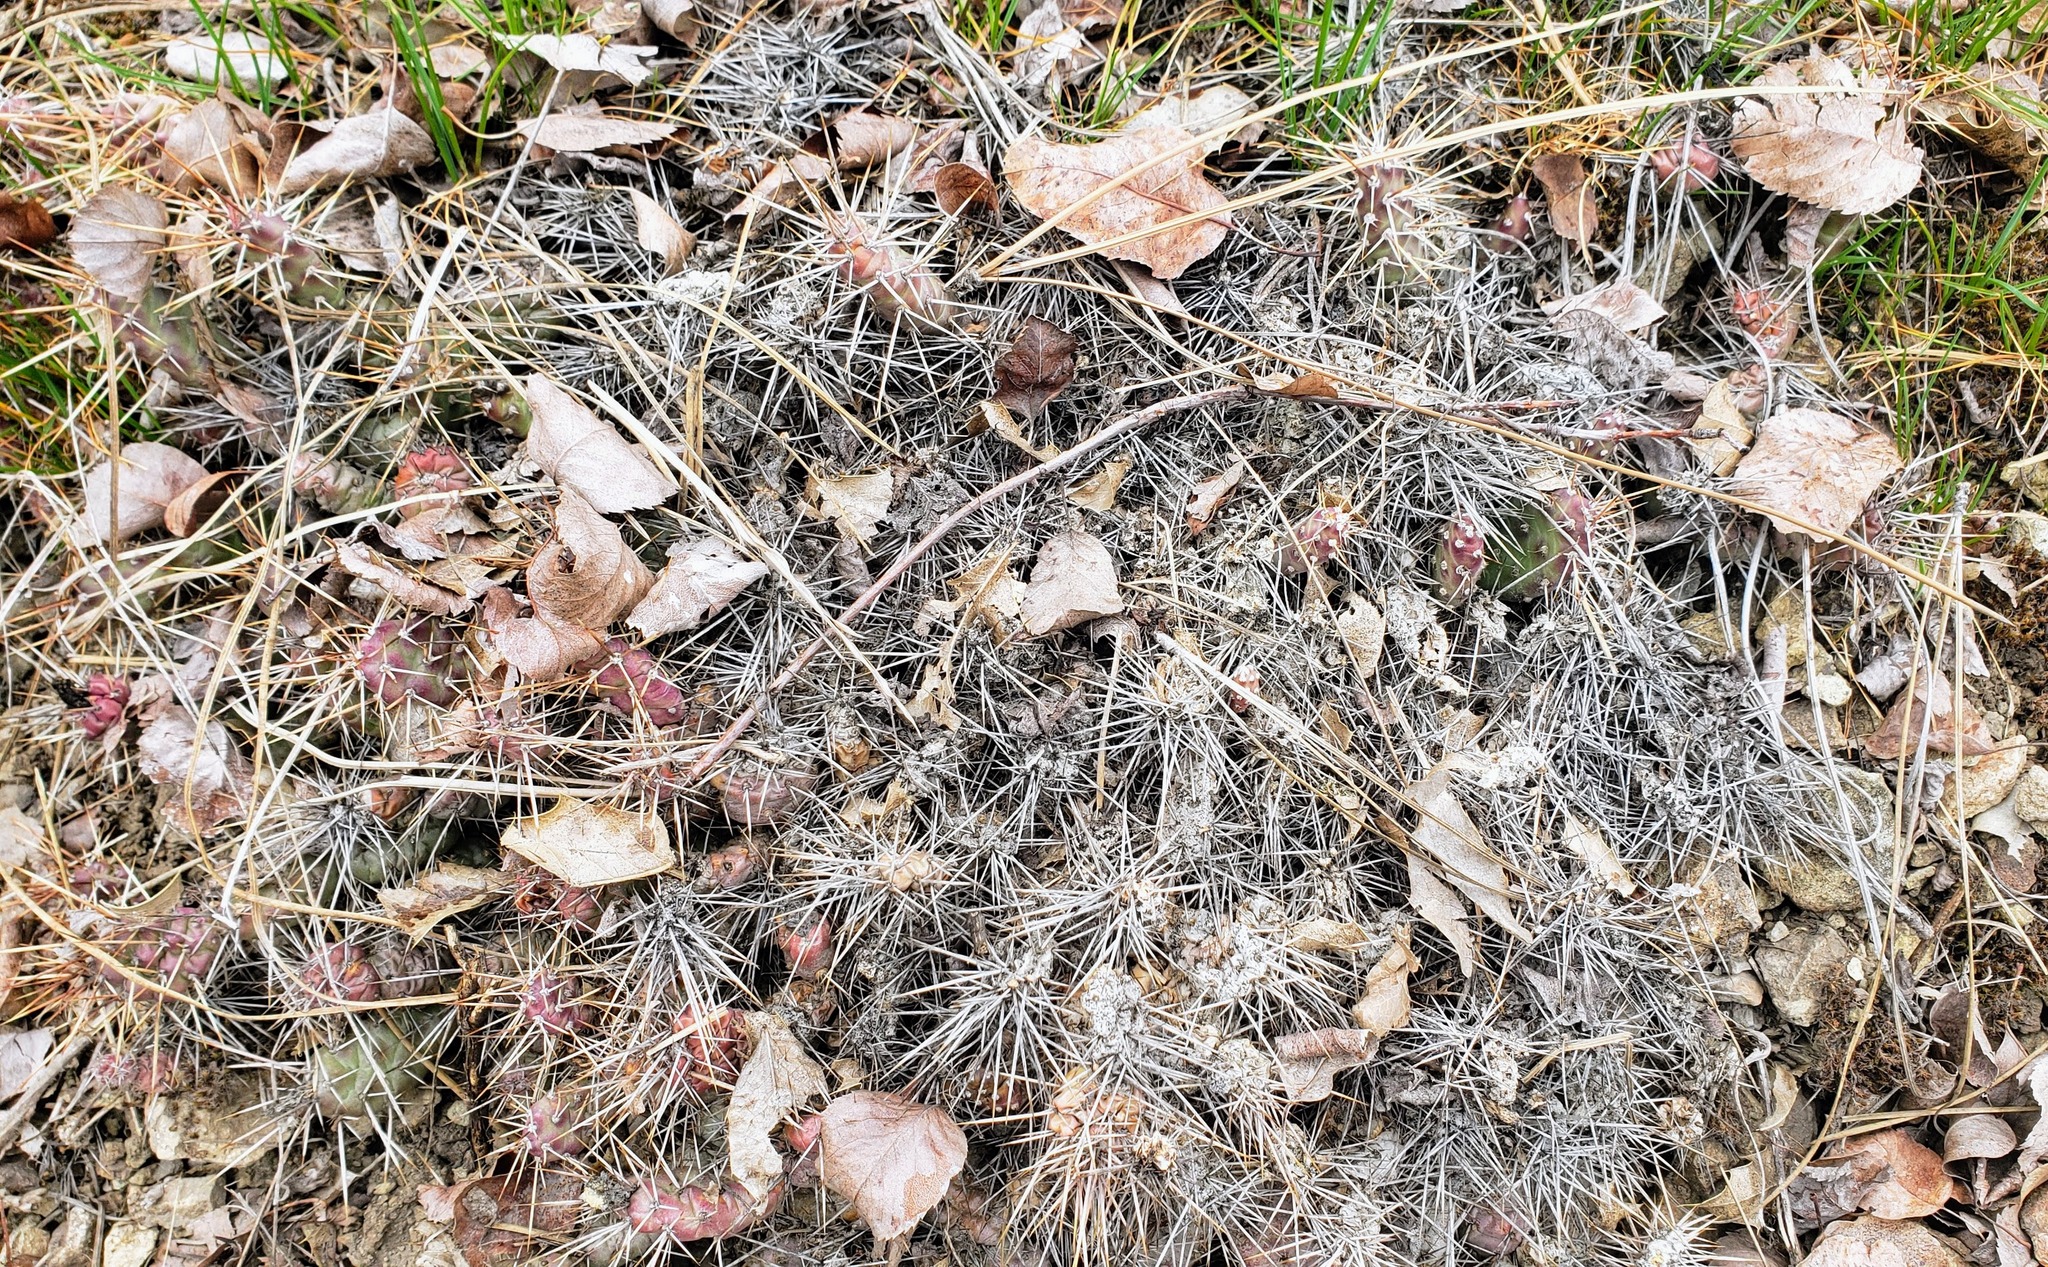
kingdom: Plantae
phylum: Tracheophyta
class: Magnoliopsida
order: Caryophyllales
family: Cactaceae
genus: Opuntia
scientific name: Opuntia fragilis
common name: Brittle cactus
